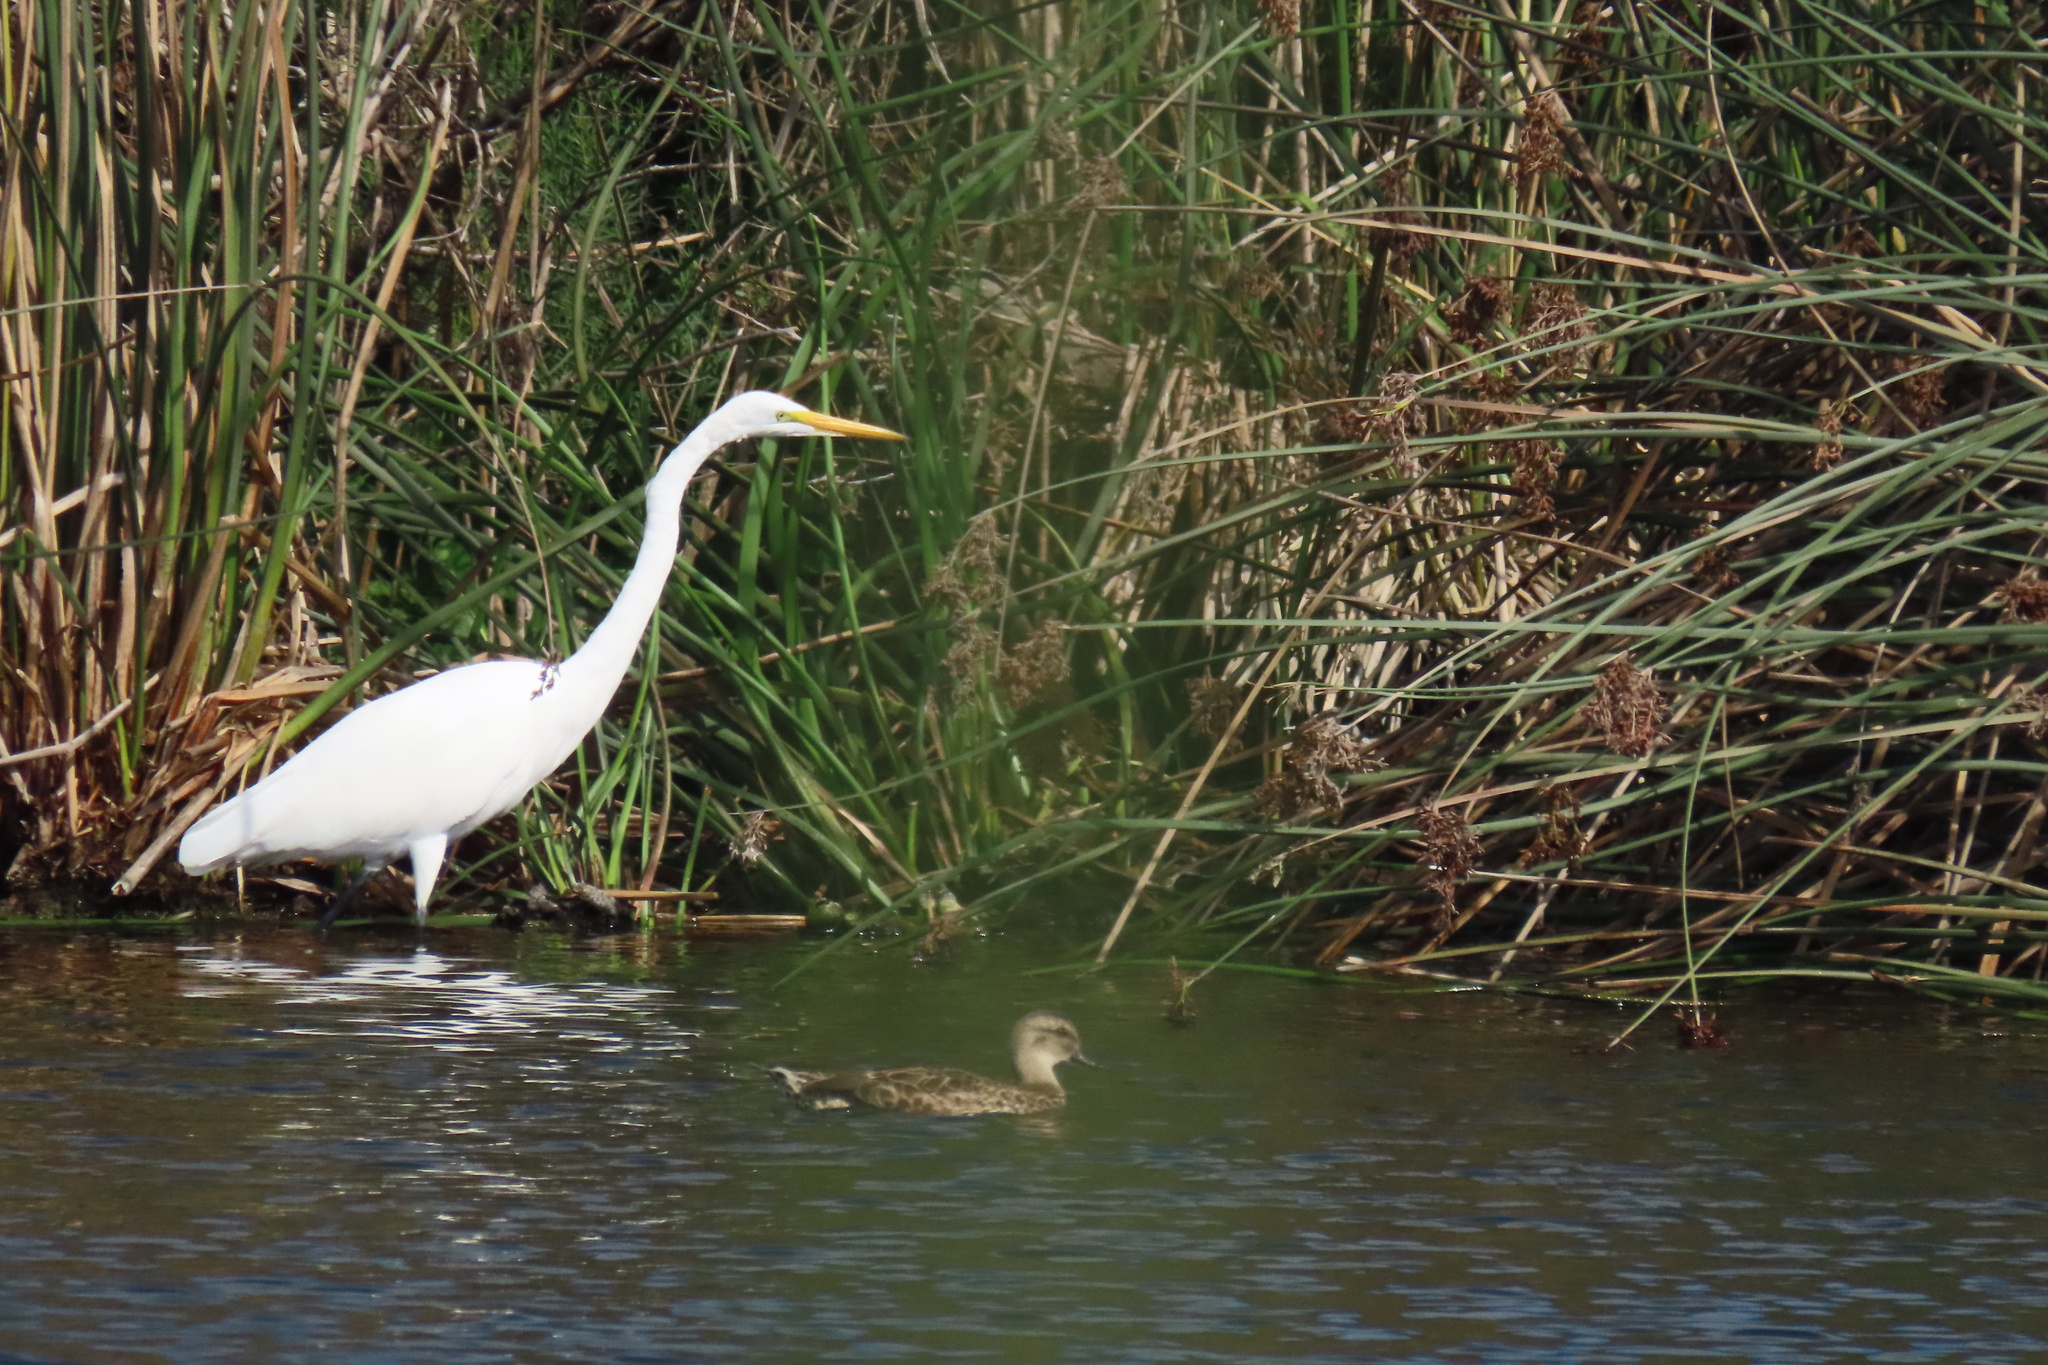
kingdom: Animalia
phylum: Chordata
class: Aves
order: Pelecaniformes
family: Ardeidae
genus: Ardea
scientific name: Ardea alba
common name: Great egret
